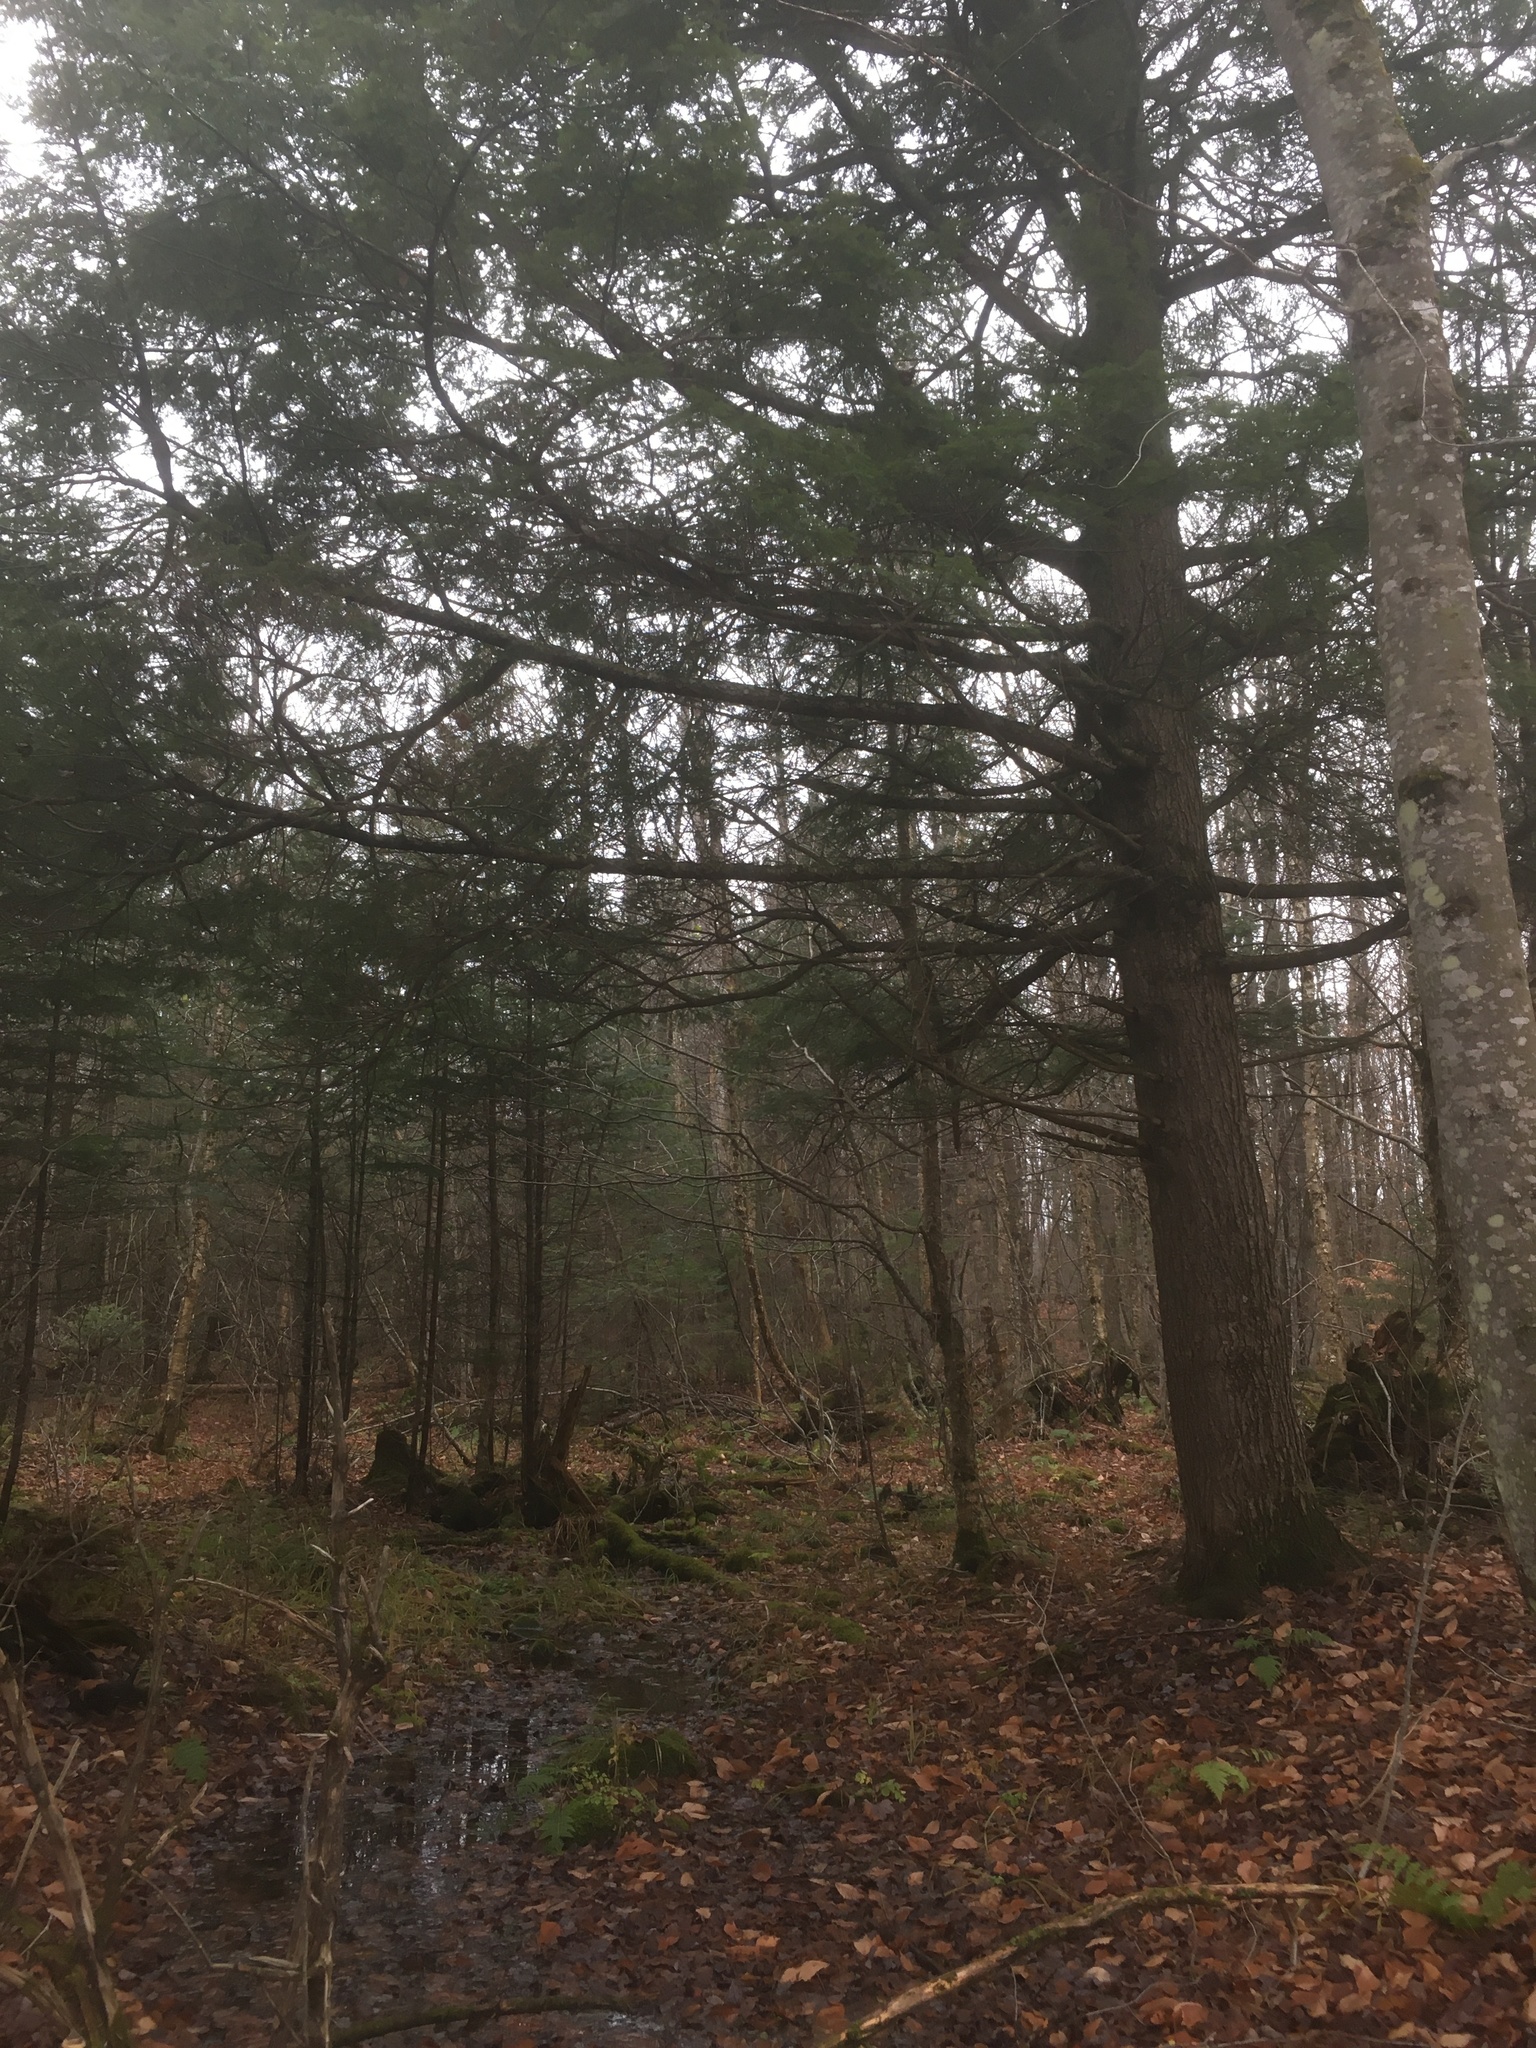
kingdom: Plantae
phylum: Tracheophyta
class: Pinopsida
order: Pinales
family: Pinaceae
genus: Tsuga
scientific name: Tsuga canadensis
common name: Eastern hemlock
